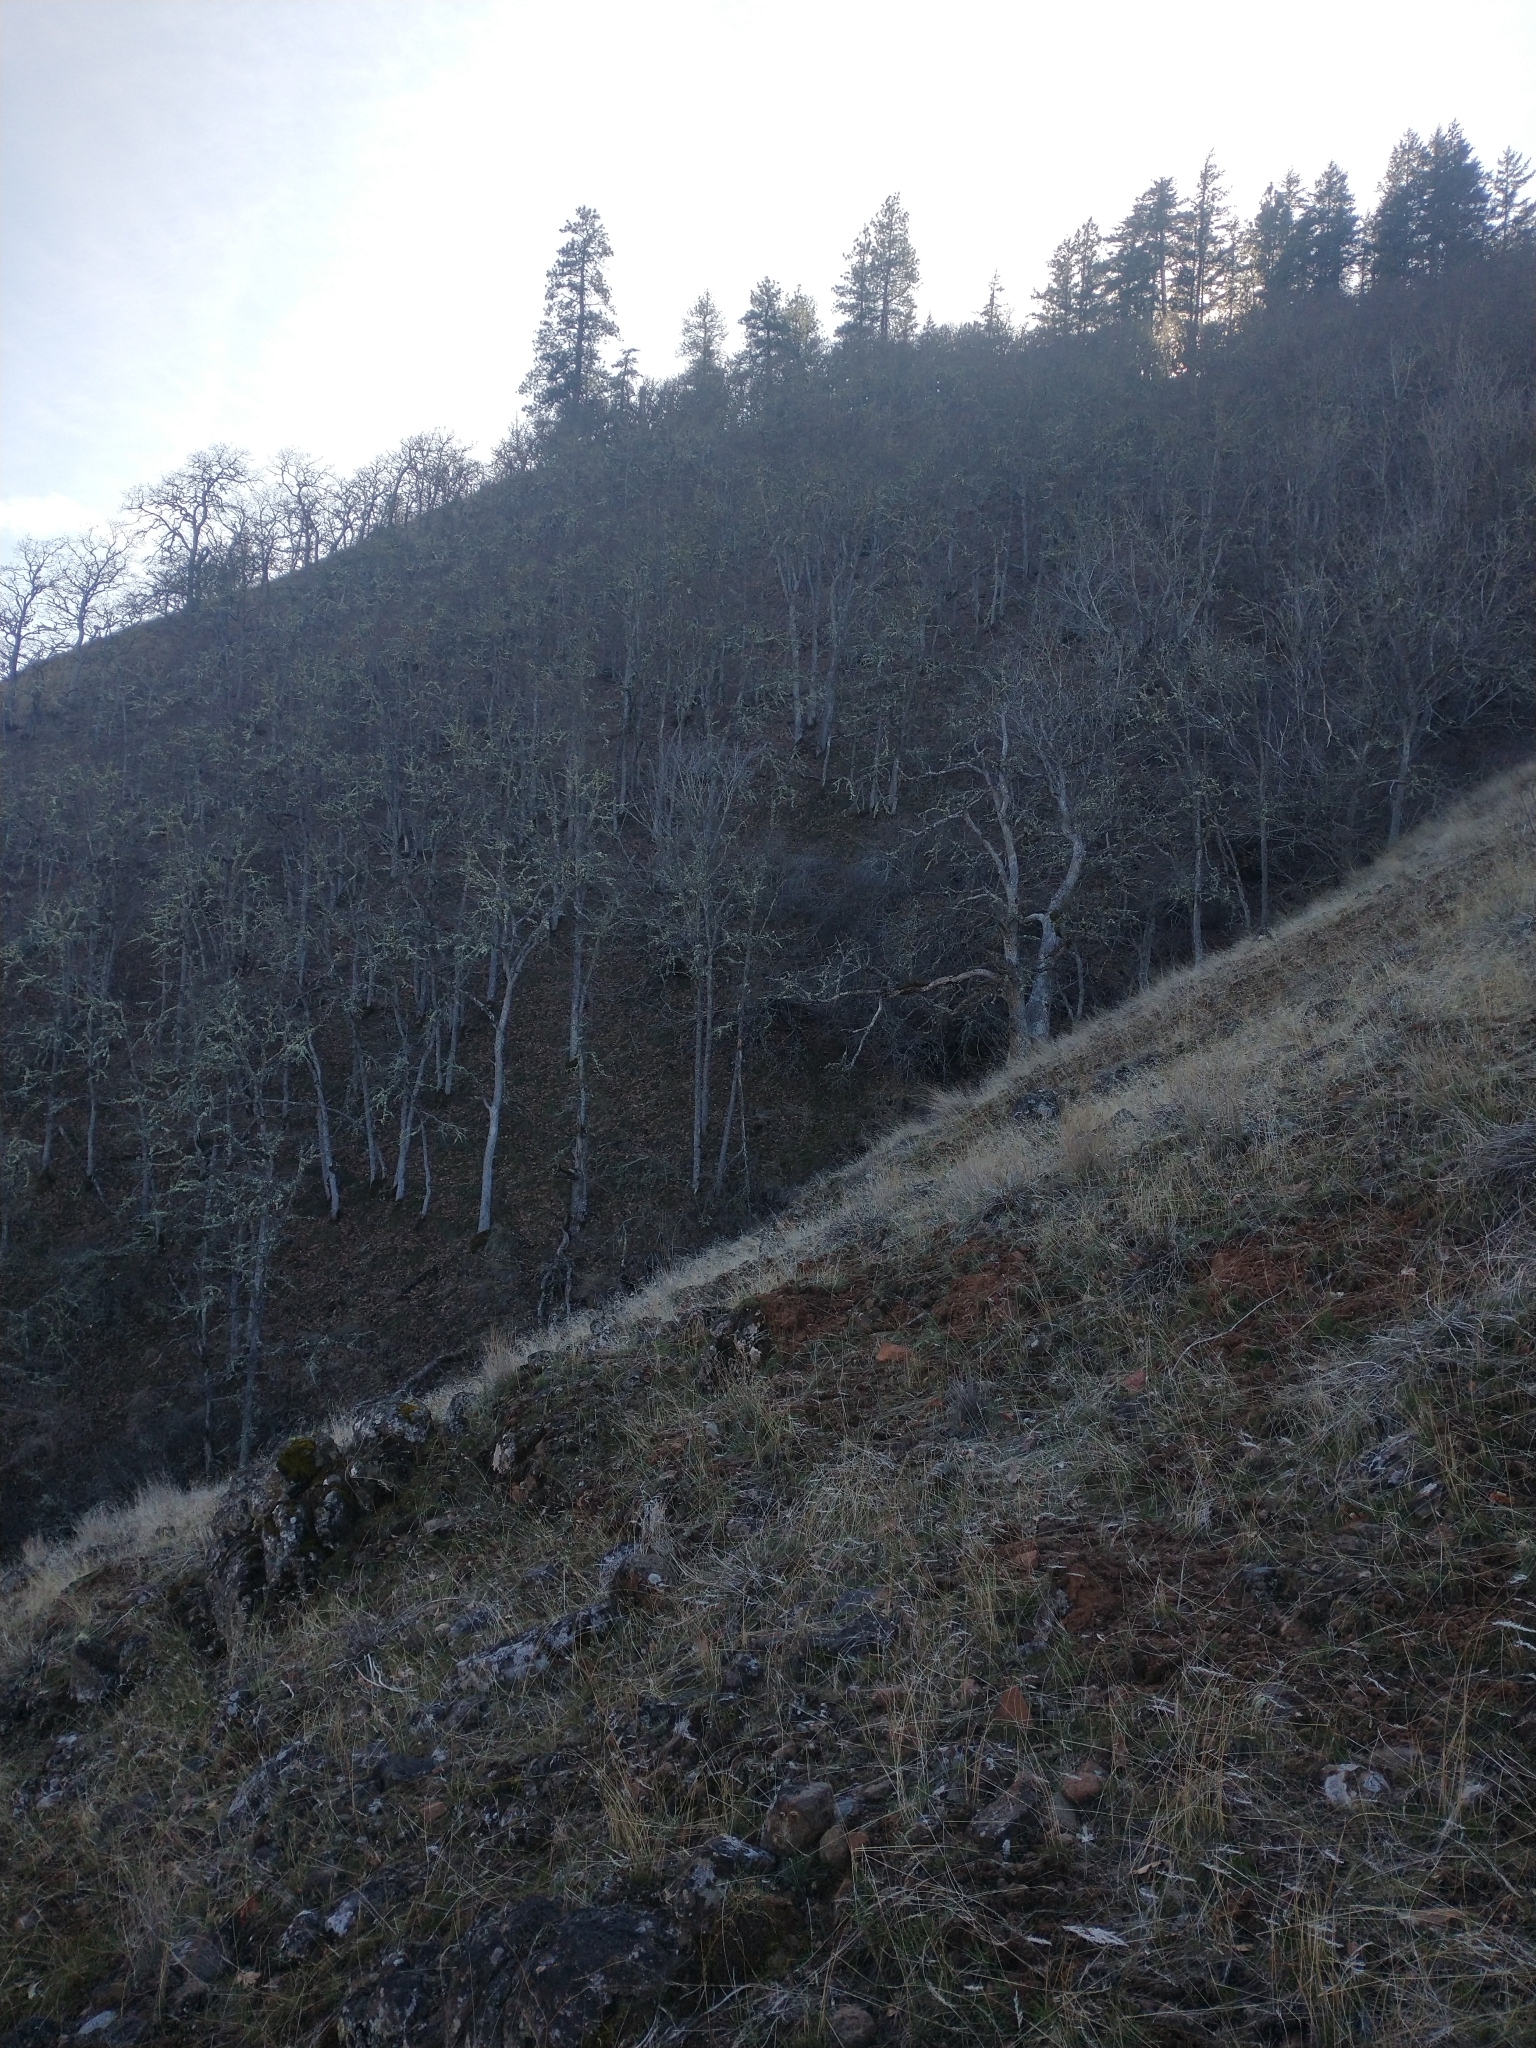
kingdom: Plantae
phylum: Tracheophyta
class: Magnoliopsida
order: Fagales
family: Fagaceae
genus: Quercus
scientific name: Quercus garryana
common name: Garry oak
